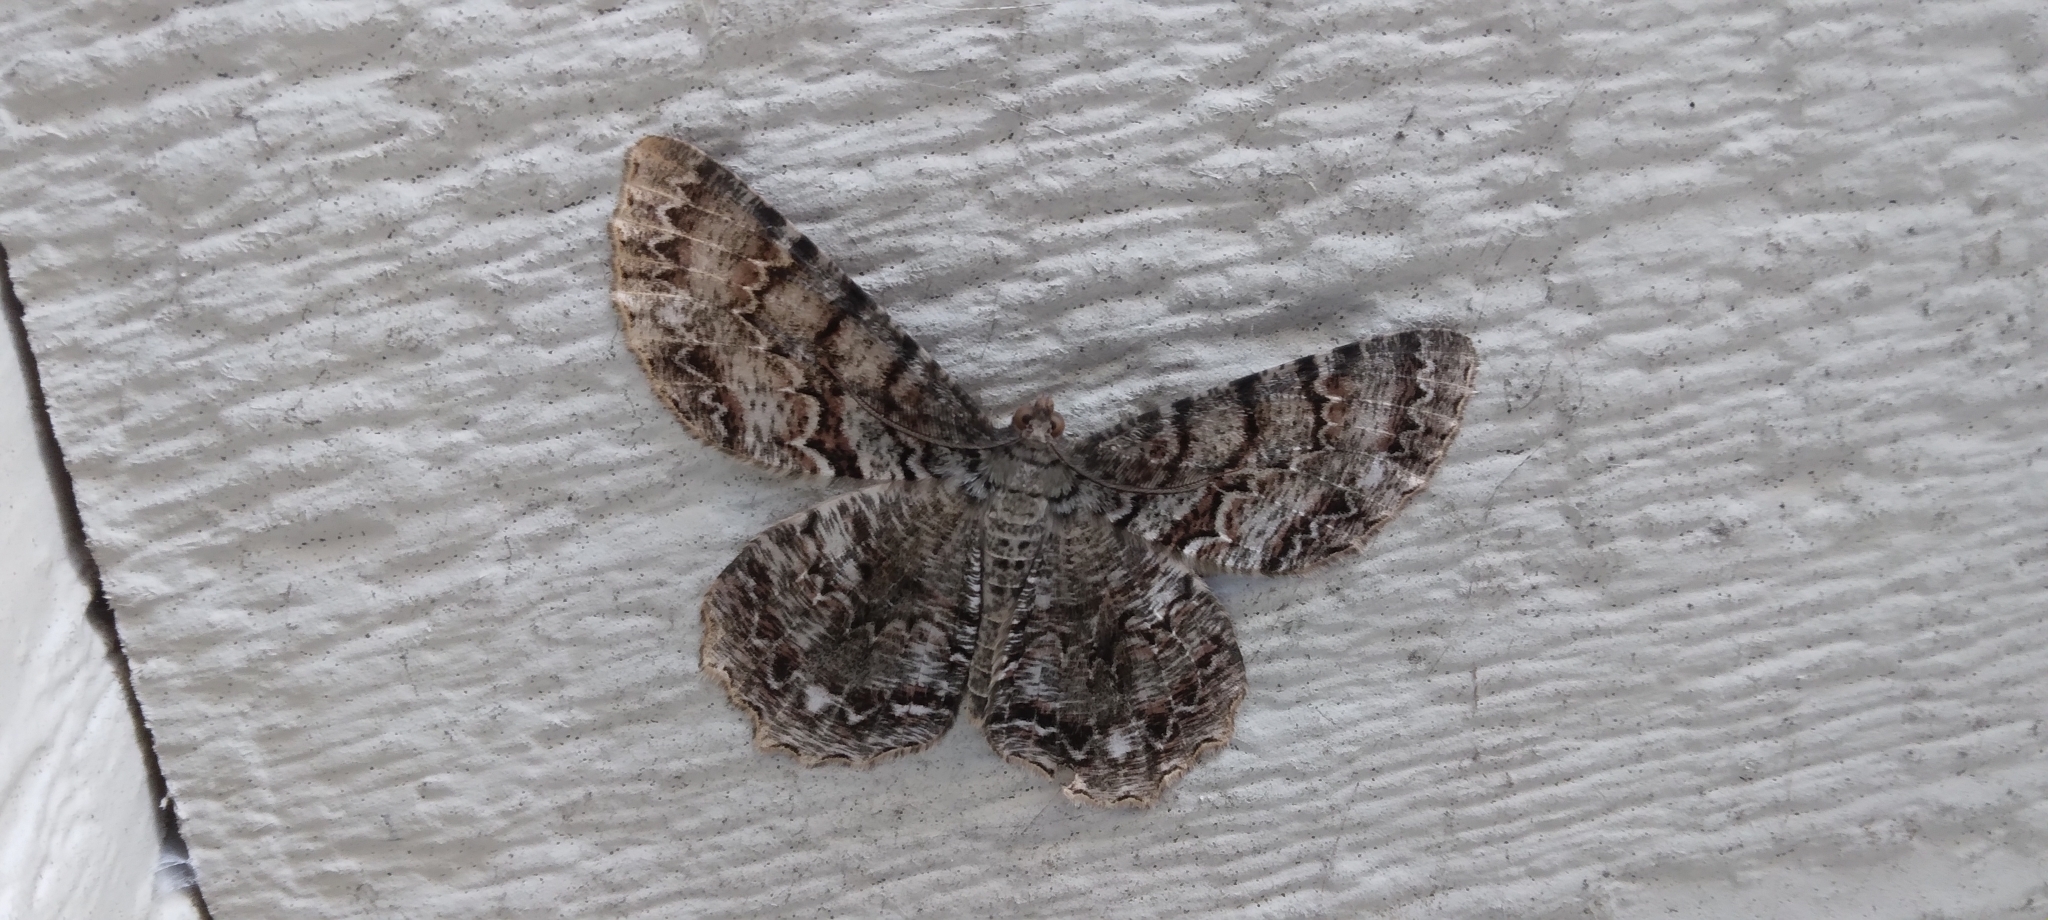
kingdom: Animalia
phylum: Arthropoda
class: Insecta
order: Lepidoptera
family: Geometridae
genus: Epimecis
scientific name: Epimecis hortaria
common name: Tulip-tree beauty
